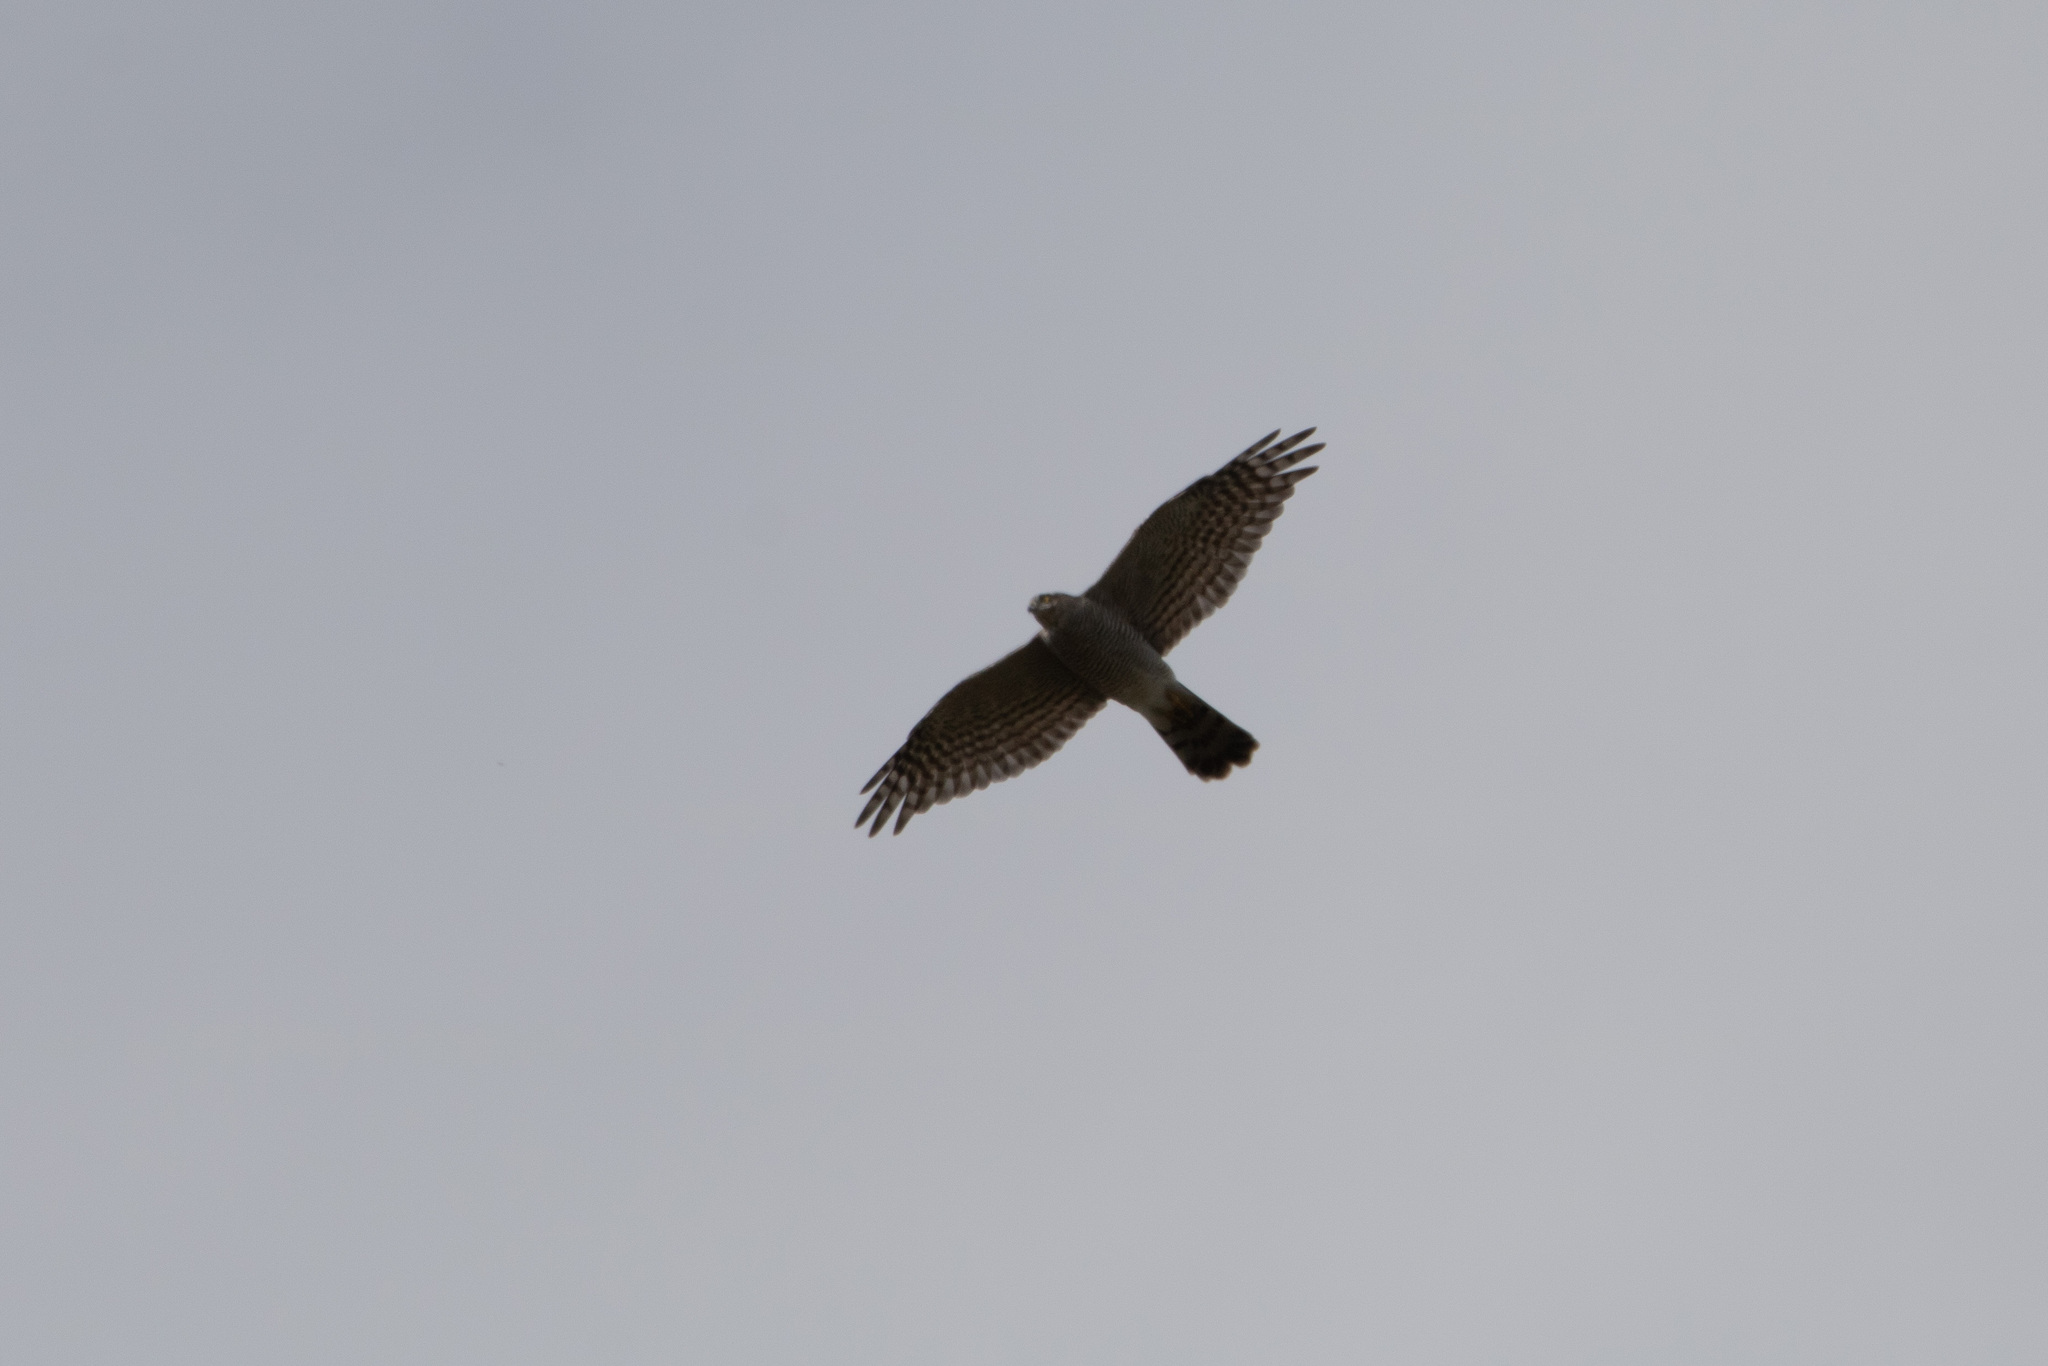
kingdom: Animalia
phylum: Chordata
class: Aves
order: Accipitriformes
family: Accipitridae
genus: Accipiter
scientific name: Accipiter nisus
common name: Eurasian sparrowhawk
